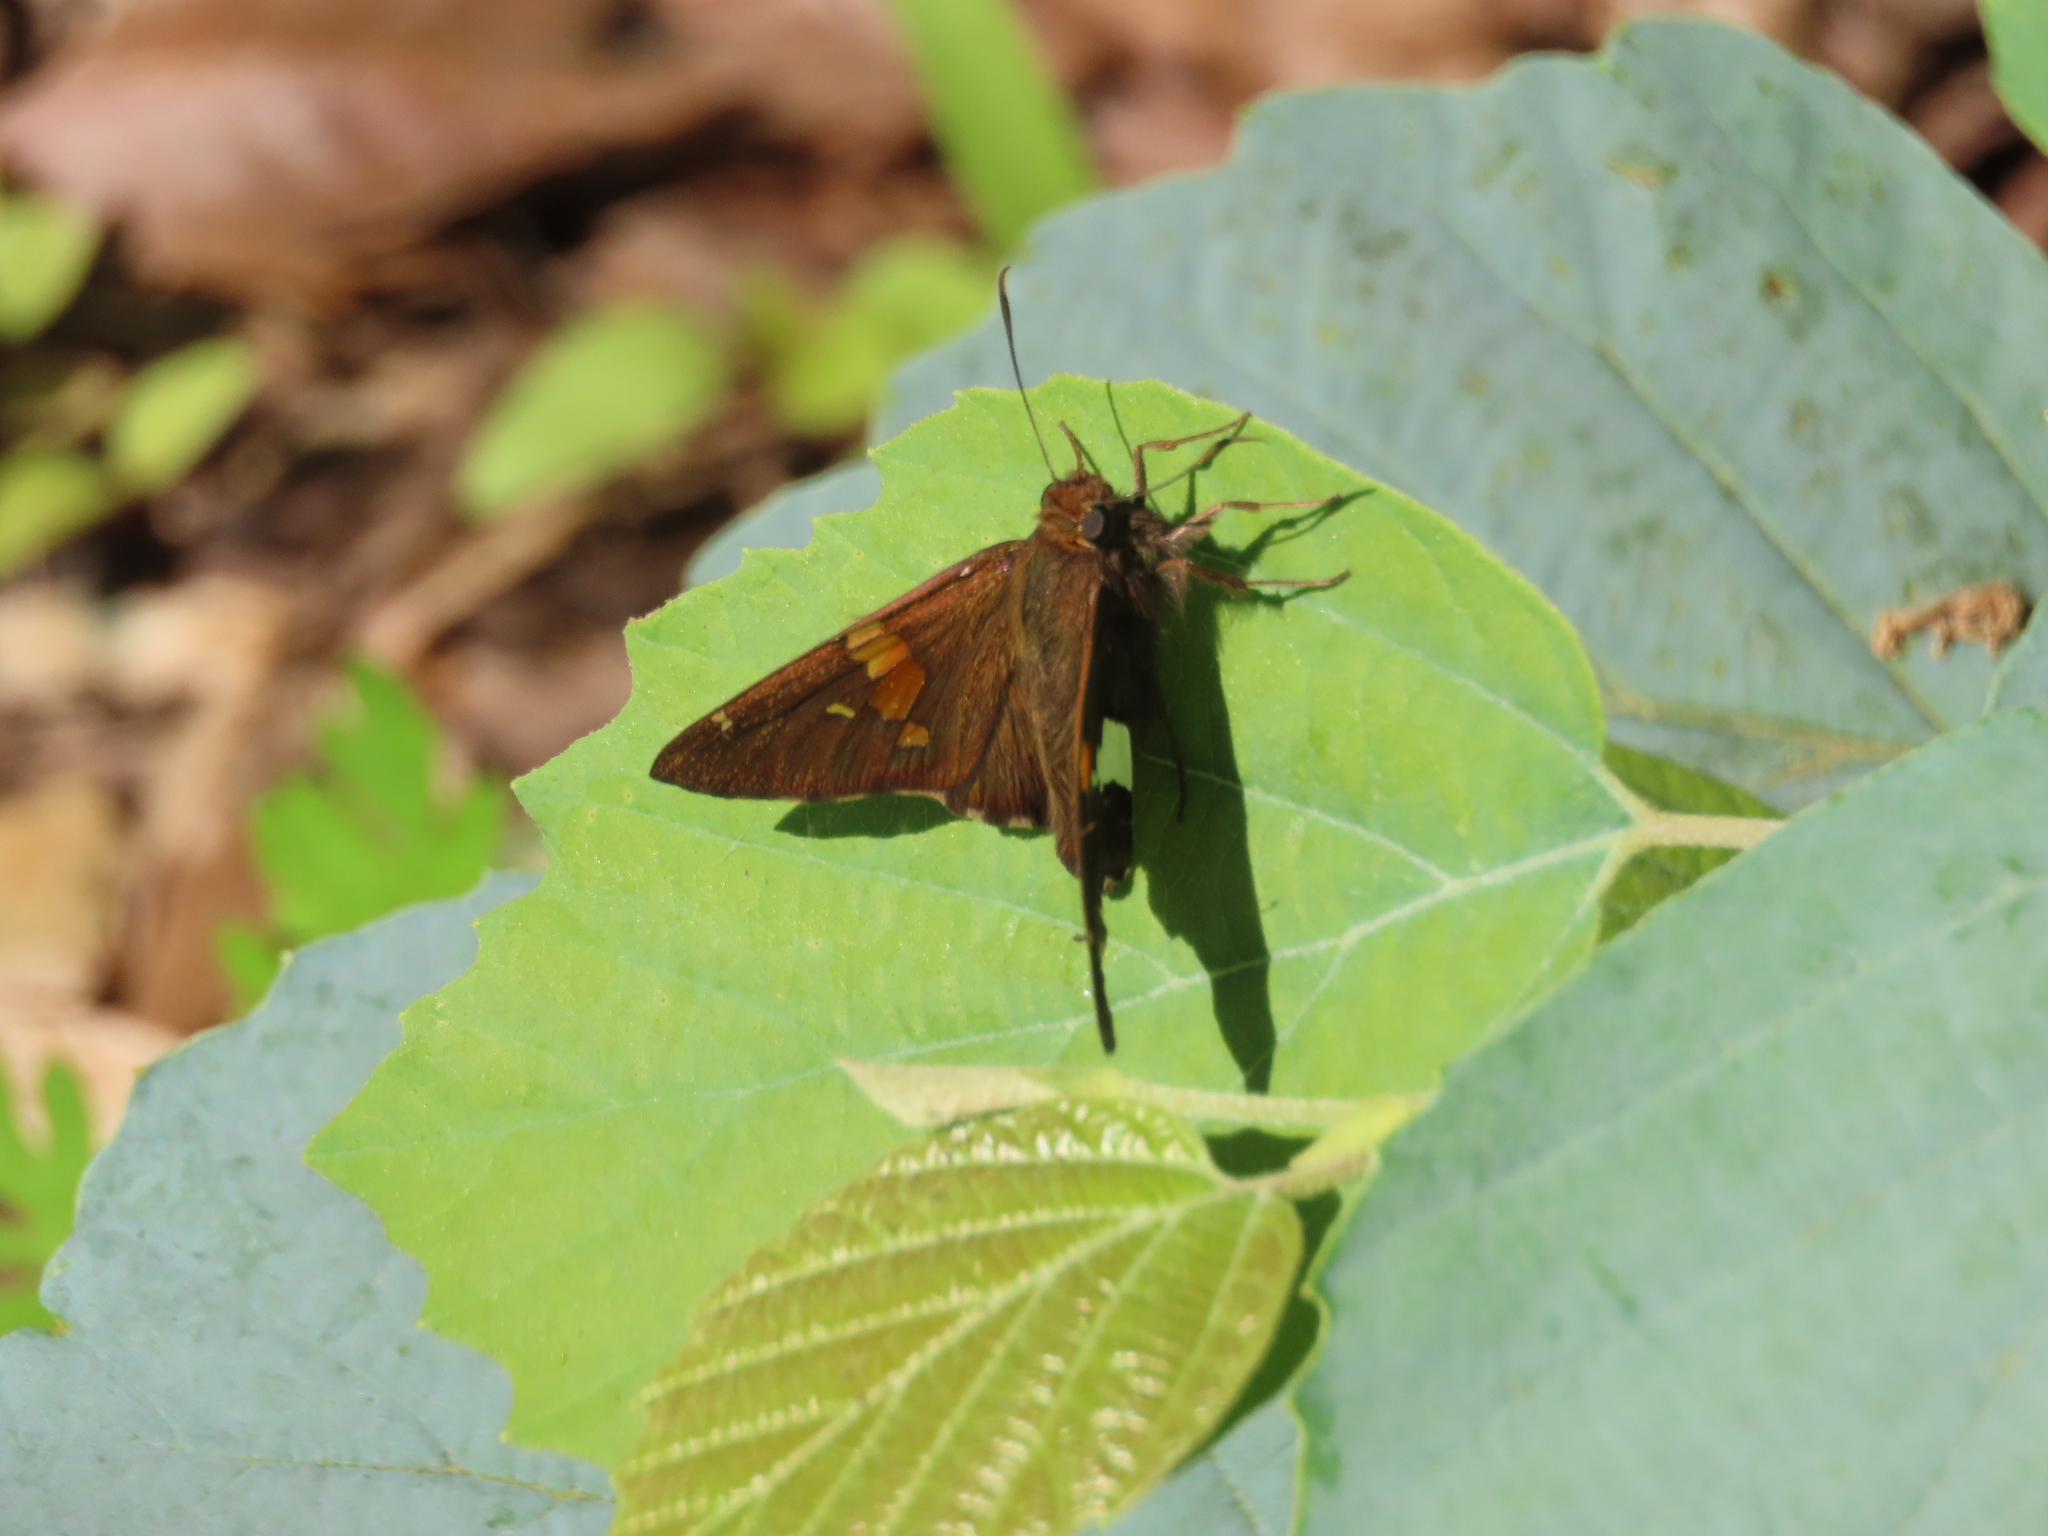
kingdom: Animalia
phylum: Arthropoda
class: Insecta
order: Lepidoptera
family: Hesperiidae
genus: Epargyreus
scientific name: Epargyreus clarus
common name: Silver-spotted skipper
